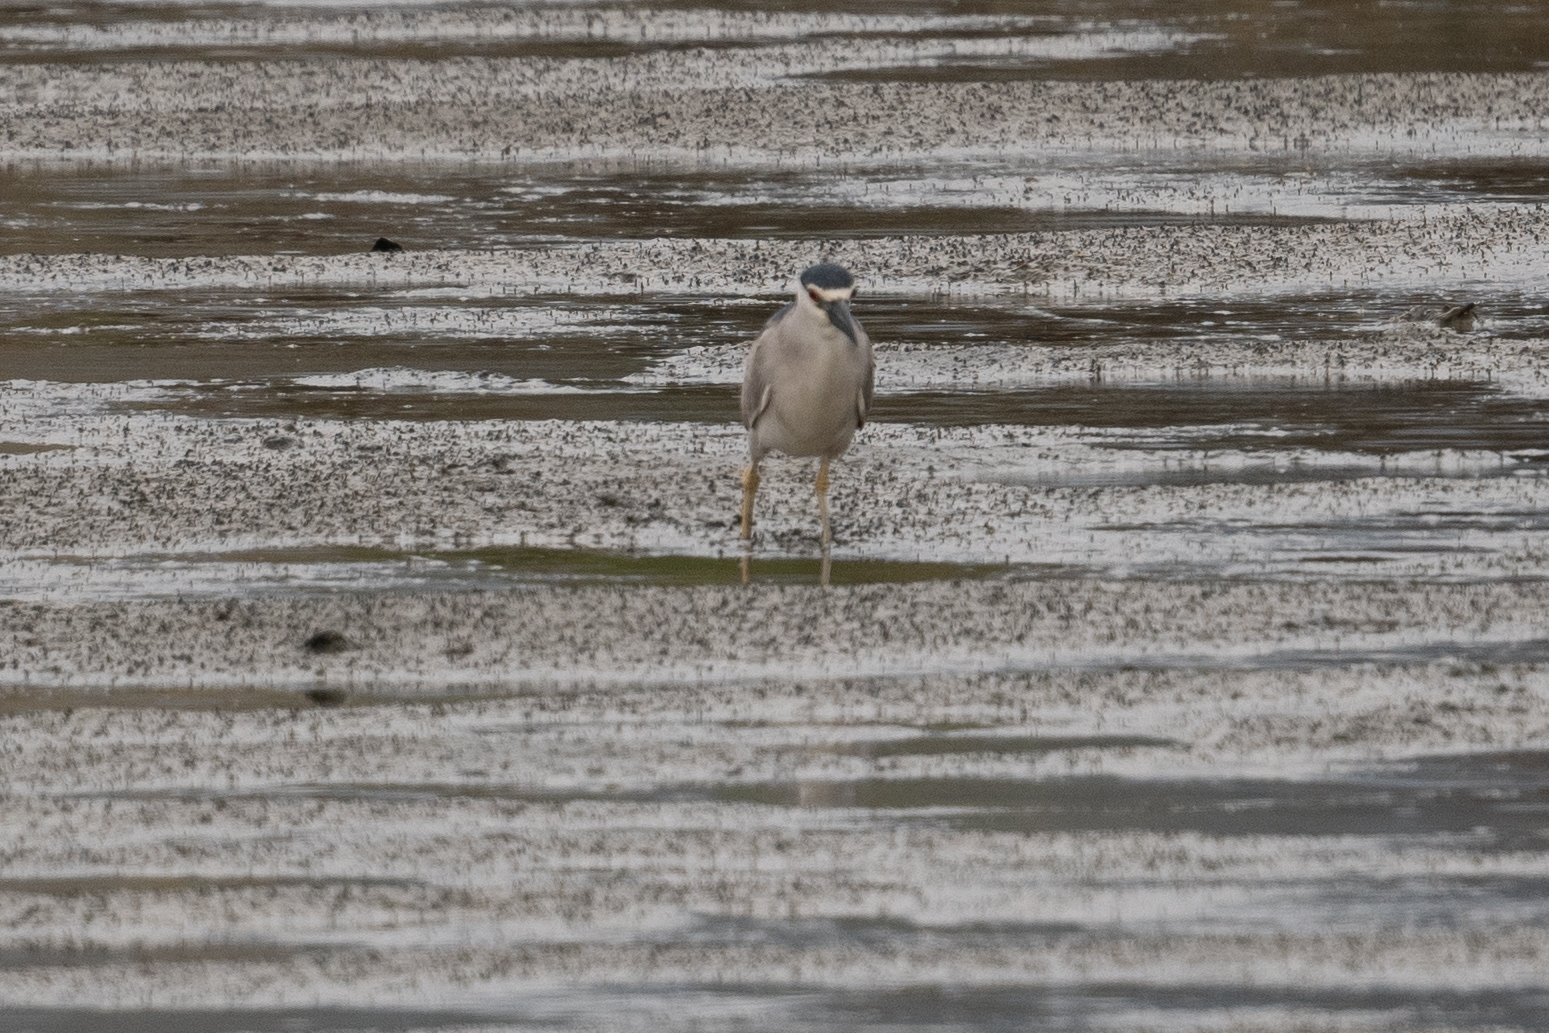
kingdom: Animalia
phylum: Chordata
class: Aves
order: Pelecaniformes
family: Ardeidae
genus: Nycticorax
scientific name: Nycticorax nycticorax
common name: Black-crowned night heron
